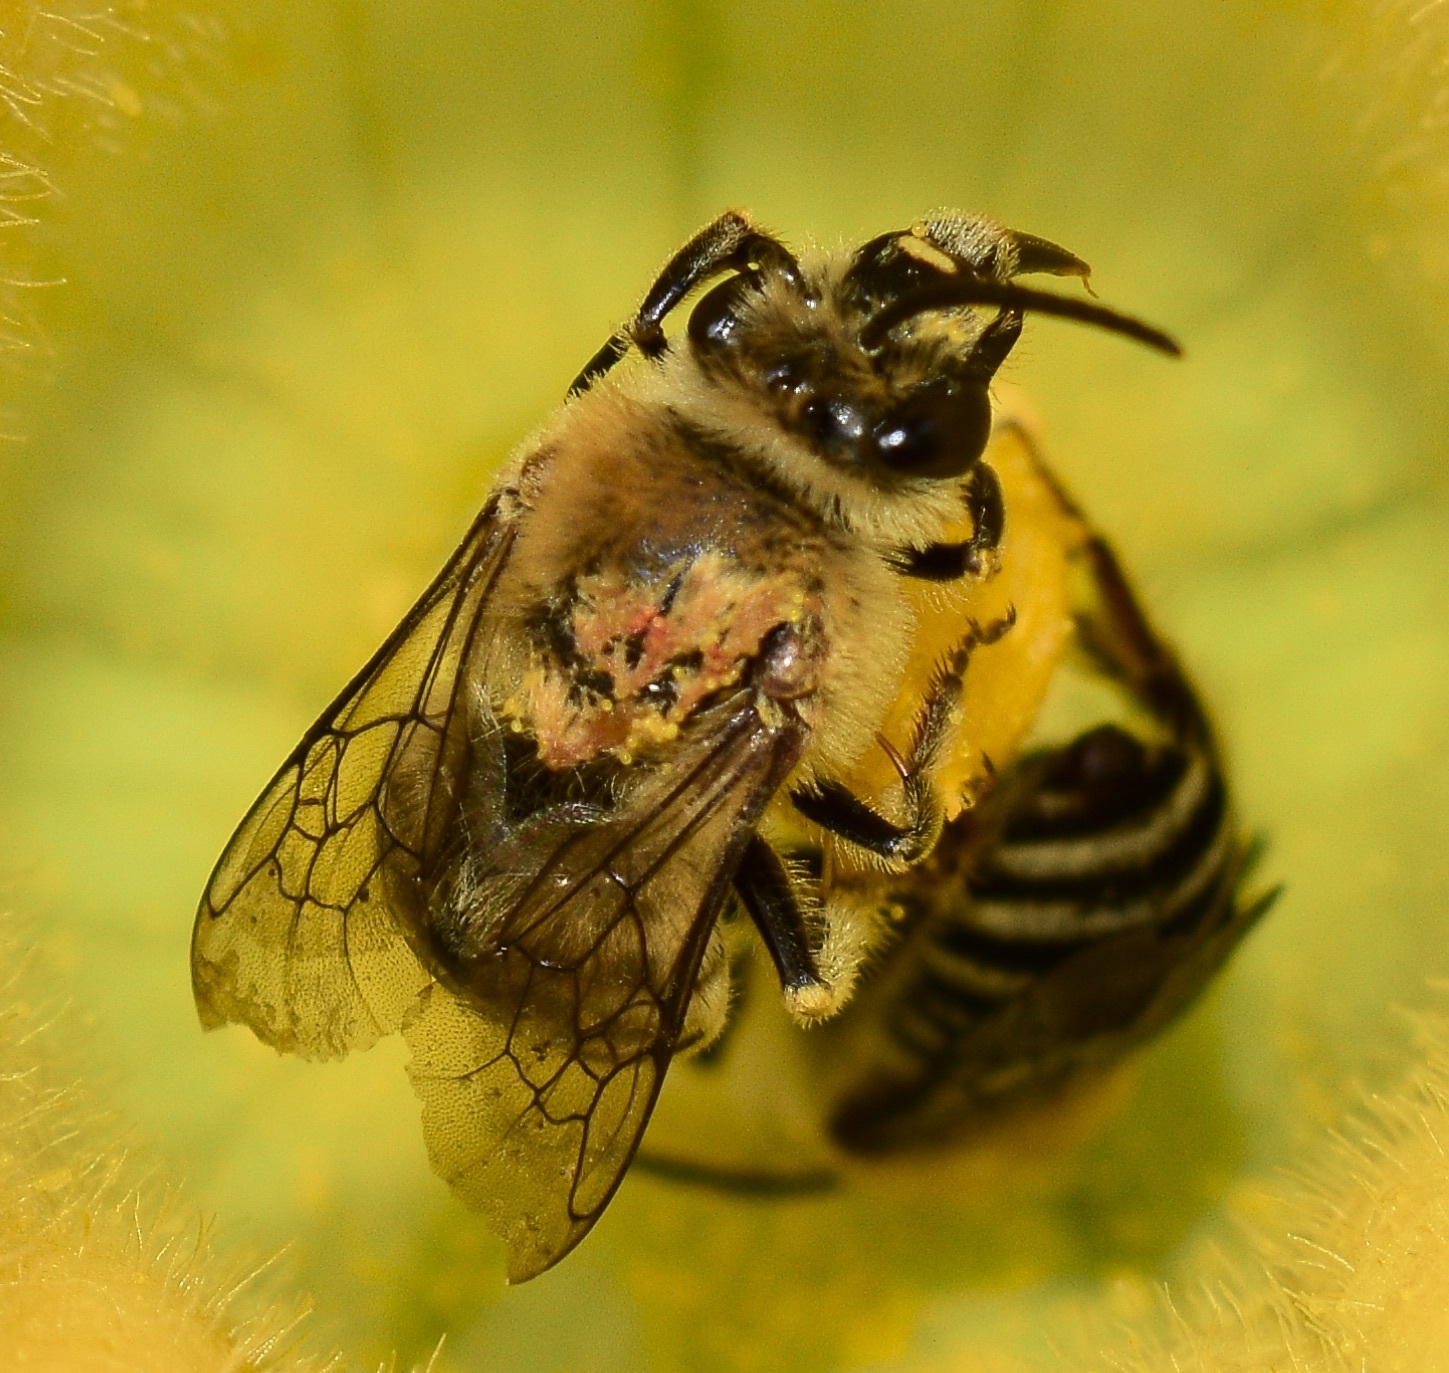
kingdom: Animalia
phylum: Arthropoda
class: Insecta
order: Hymenoptera
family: Apidae
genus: Peponapis
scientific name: Peponapis pruinosa
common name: Pruinose squash bee
